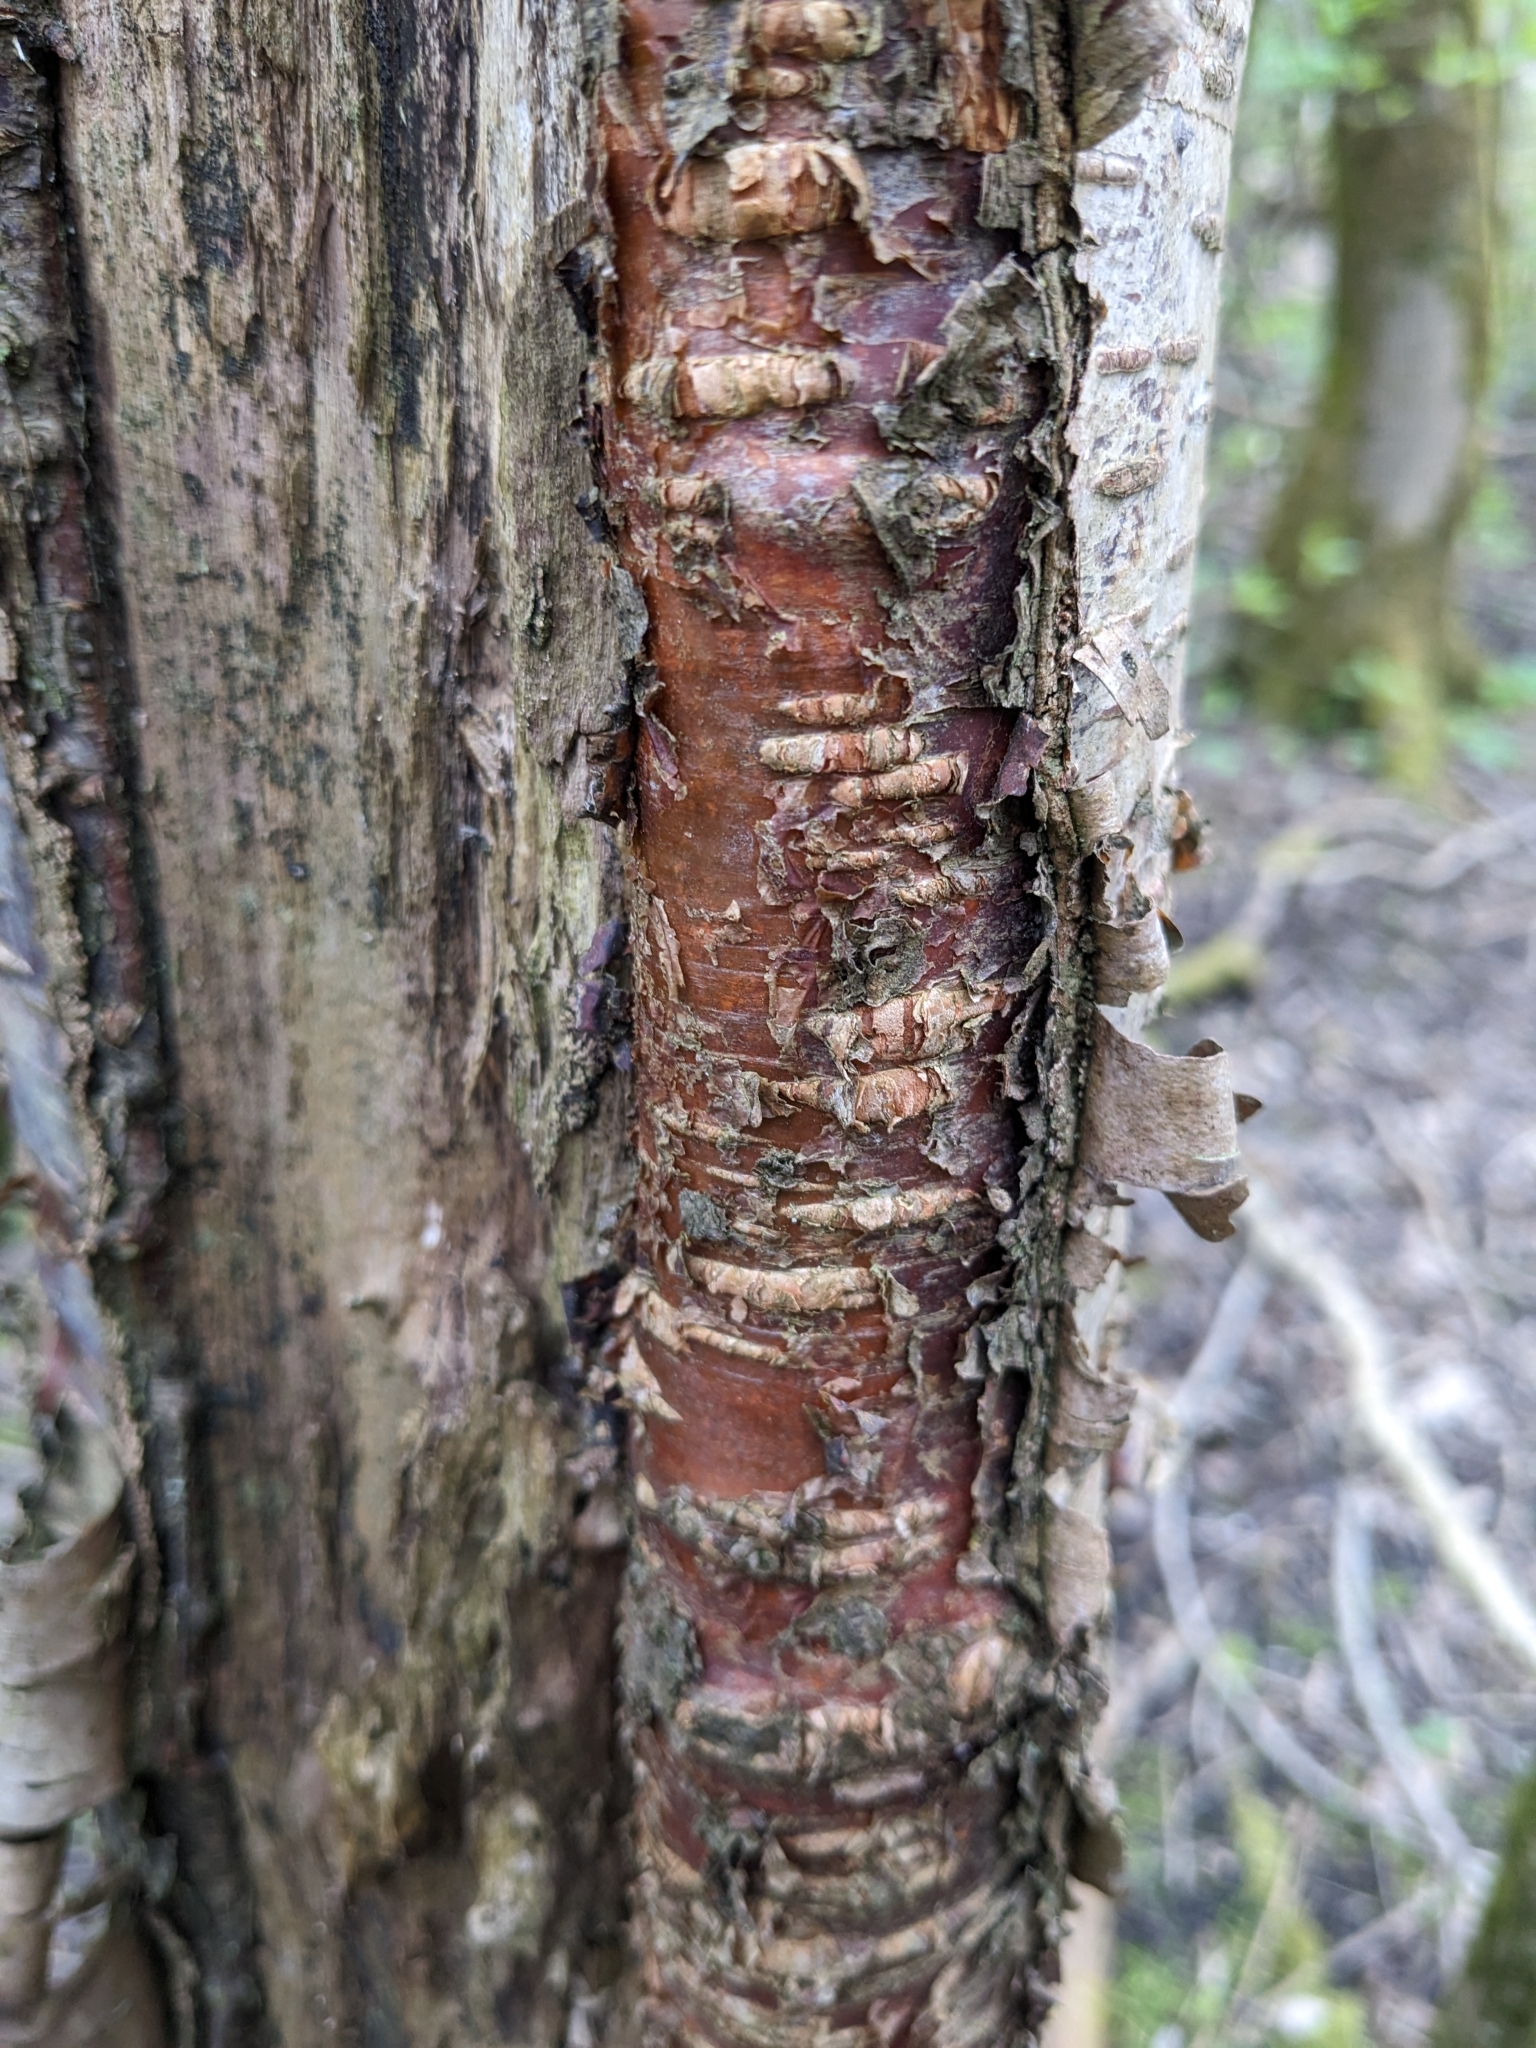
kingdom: Plantae
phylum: Tracheophyta
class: Magnoliopsida
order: Rosales
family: Rosaceae
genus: Prunus
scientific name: Prunus avium
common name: Sweet cherry
